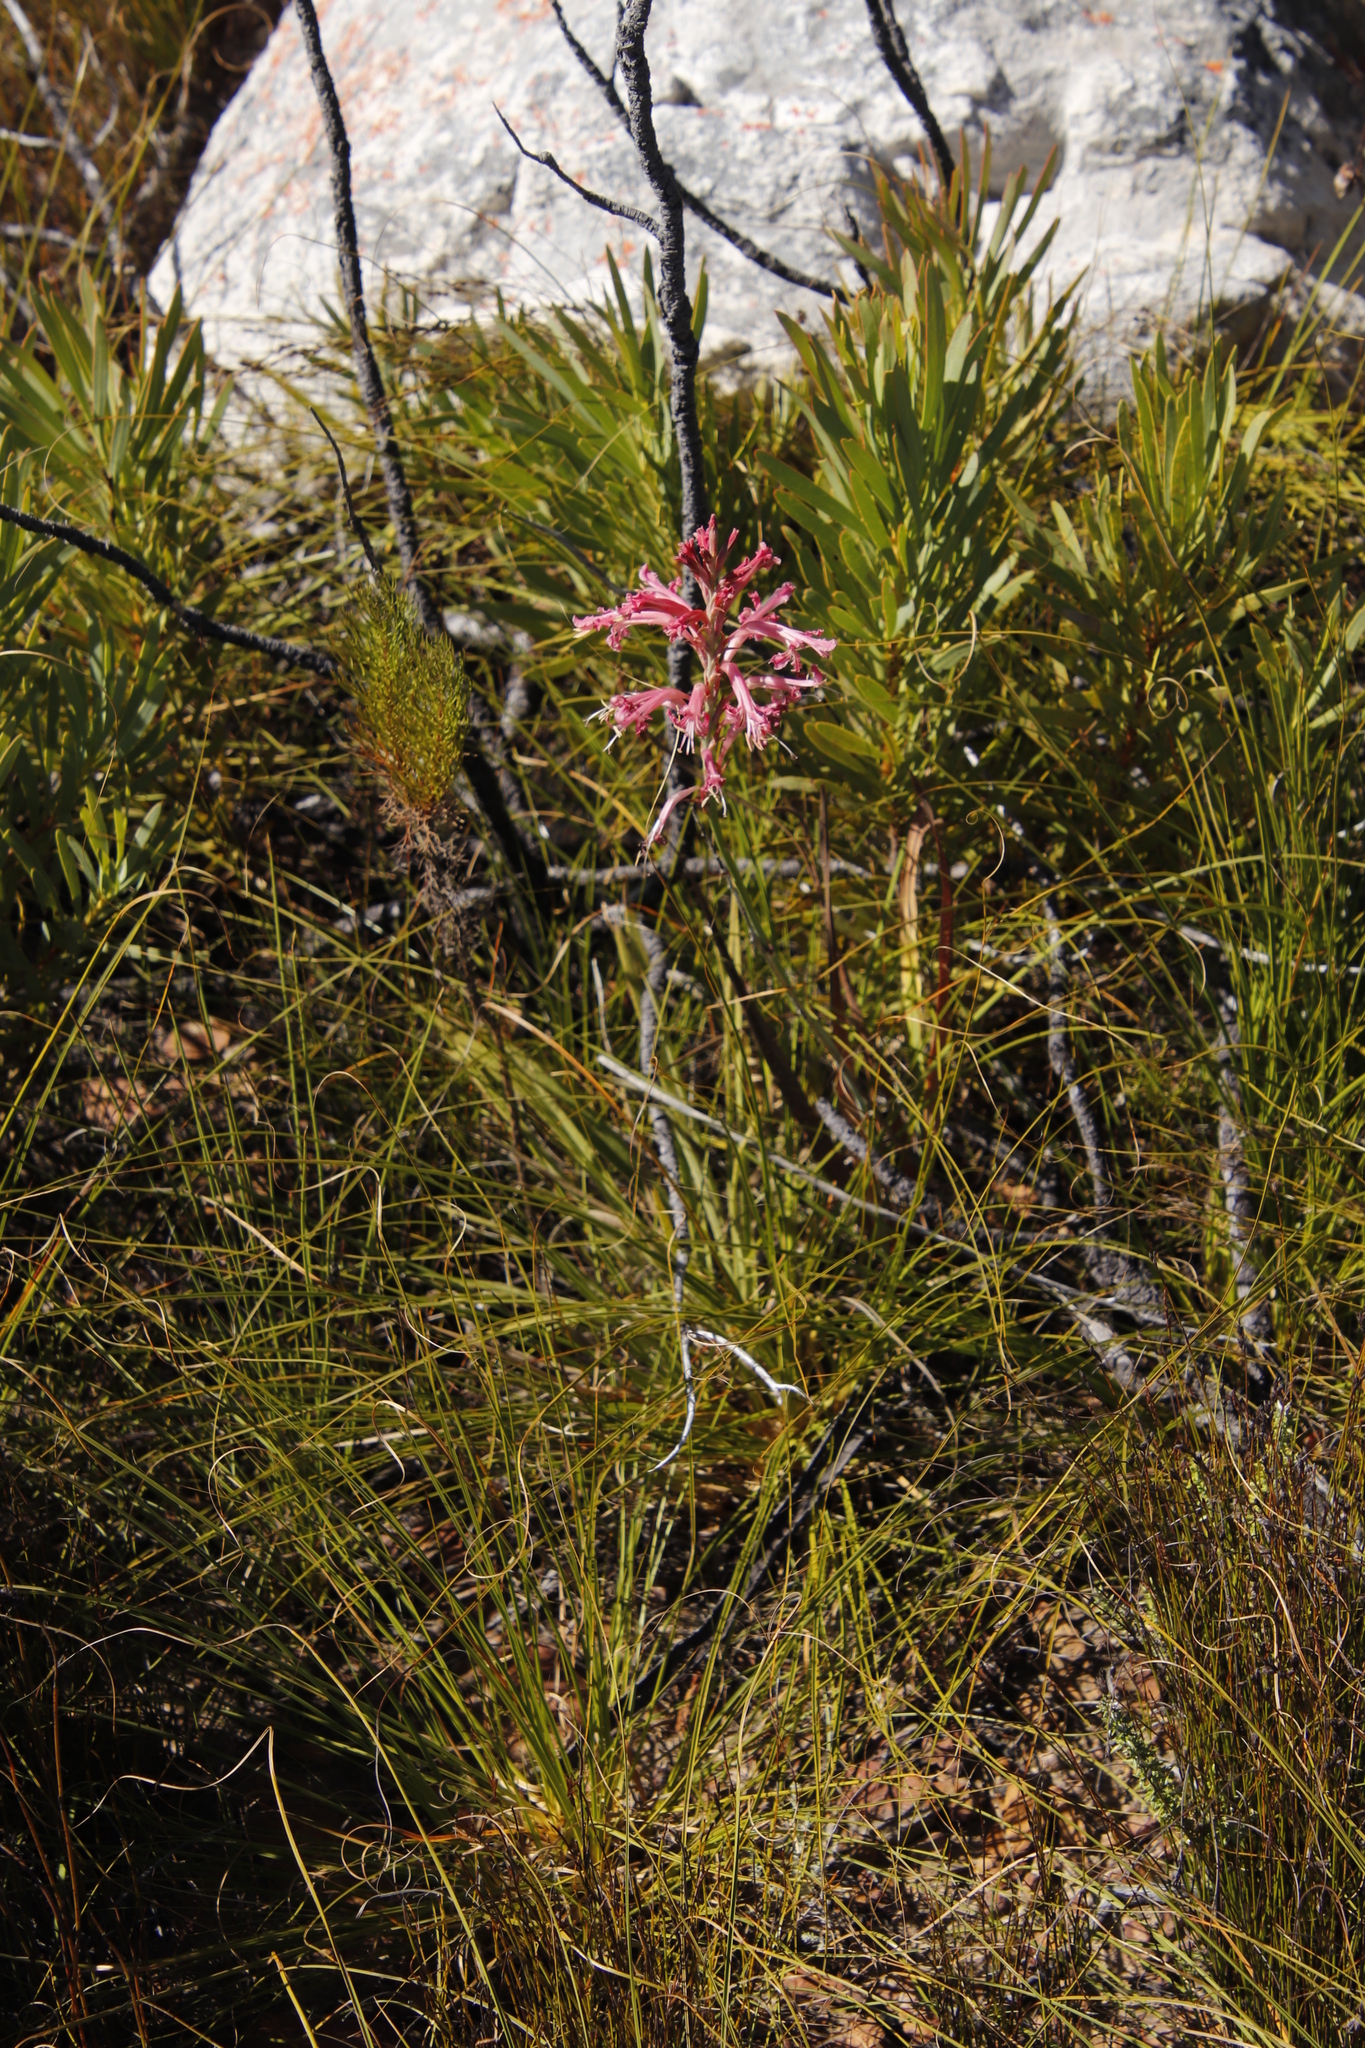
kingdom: Plantae
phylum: Tracheophyta
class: Liliopsida
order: Asparagales
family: Iridaceae
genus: Tritoniopsis
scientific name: Tritoniopsis antholyza
